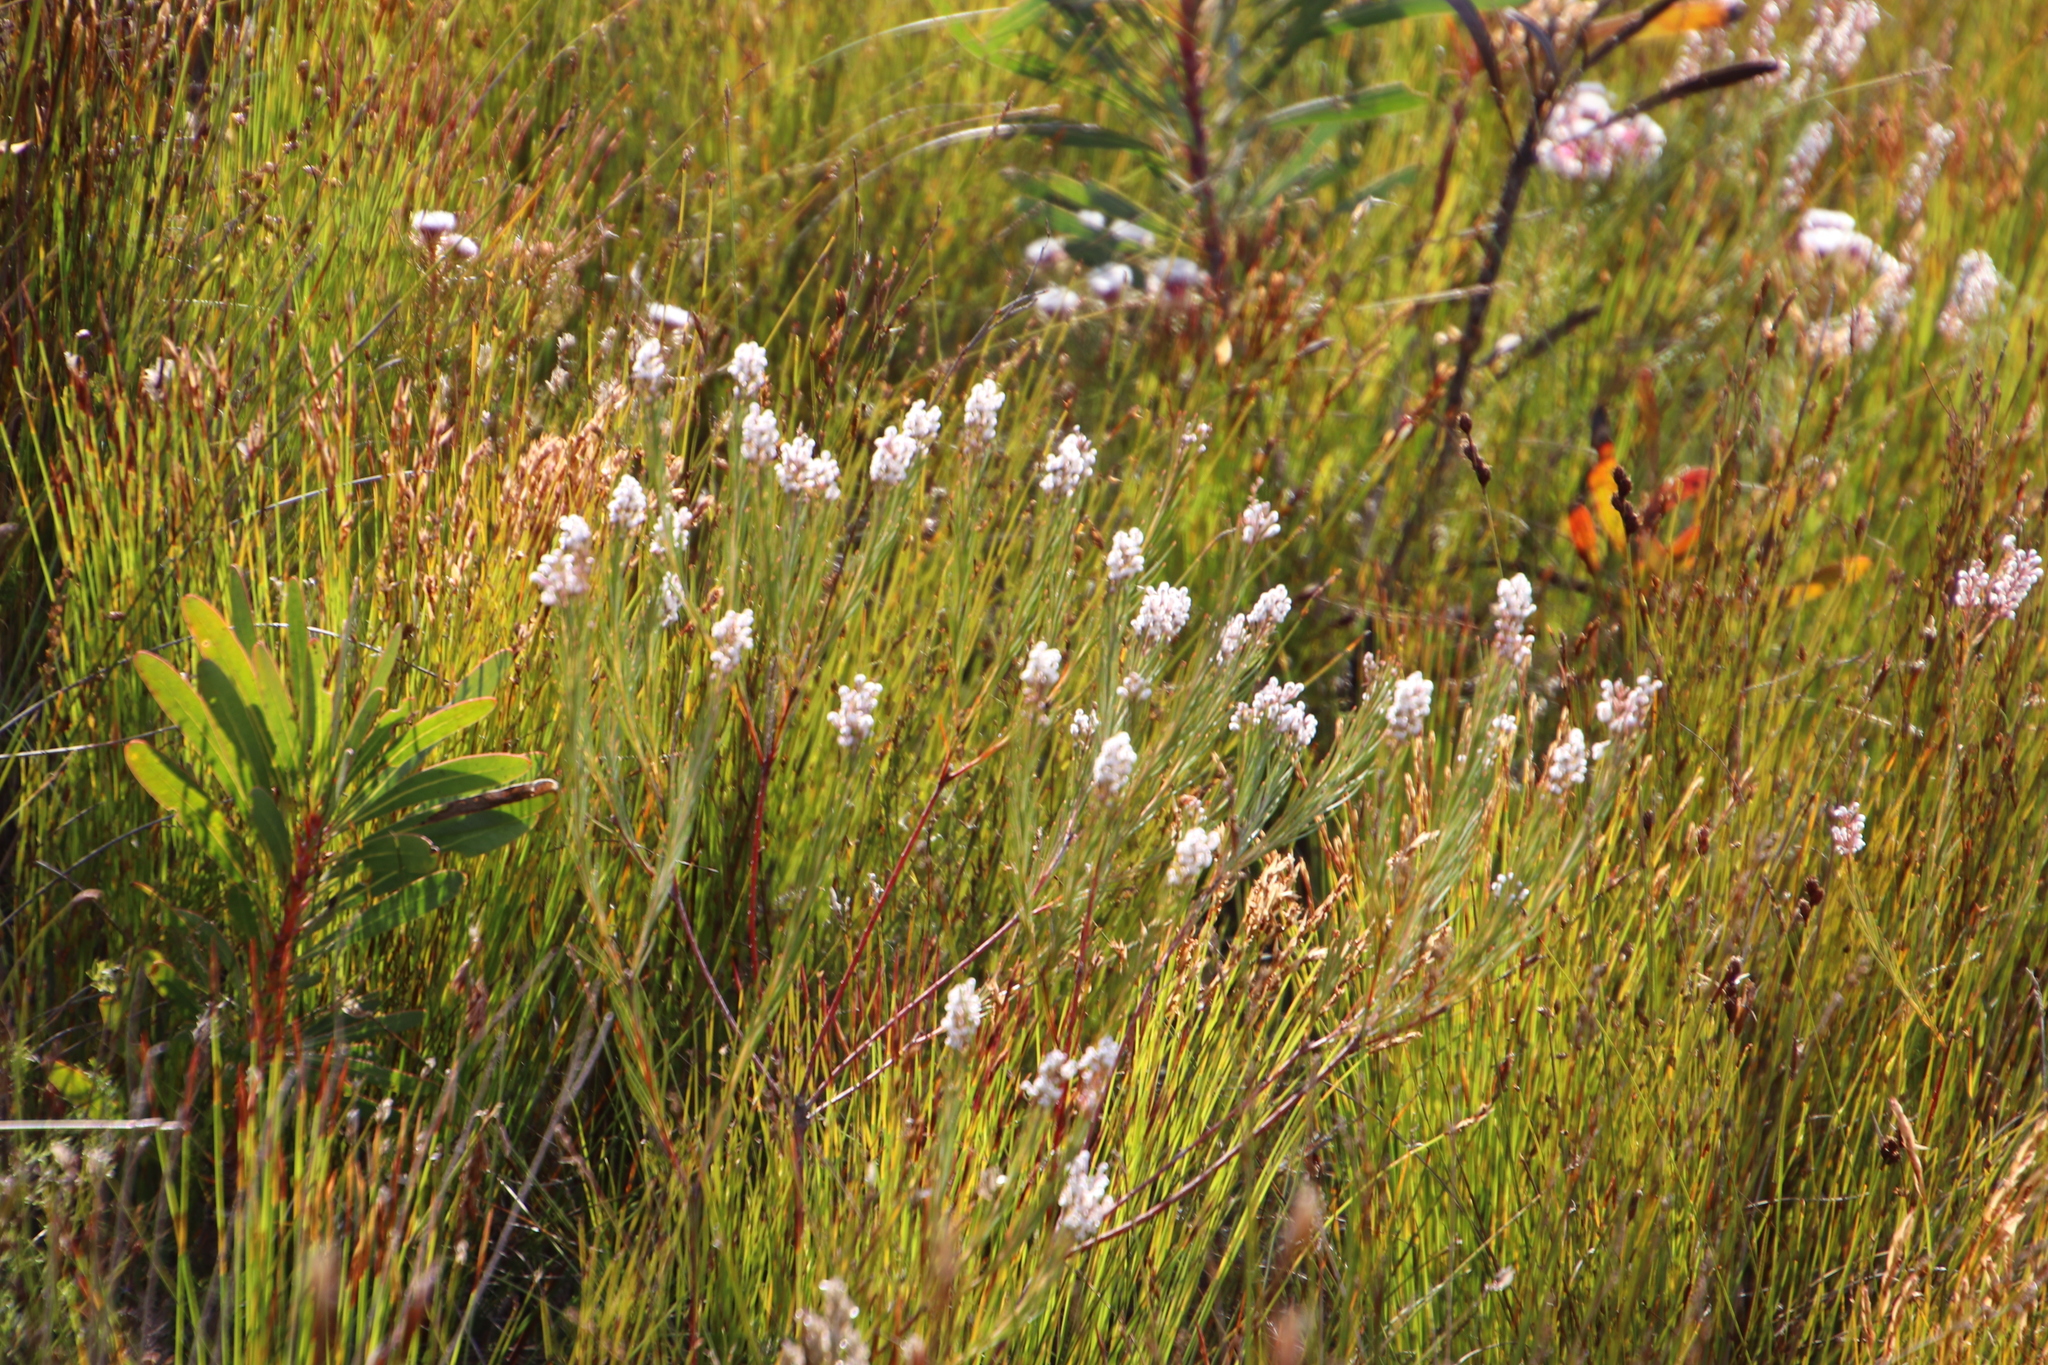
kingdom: Plantae
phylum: Tracheophyta
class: Magnoliopsida
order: Proteales
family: Proteaceae
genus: Spatalla
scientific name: Spatalla racemosa
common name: Lax-stalked spoon
